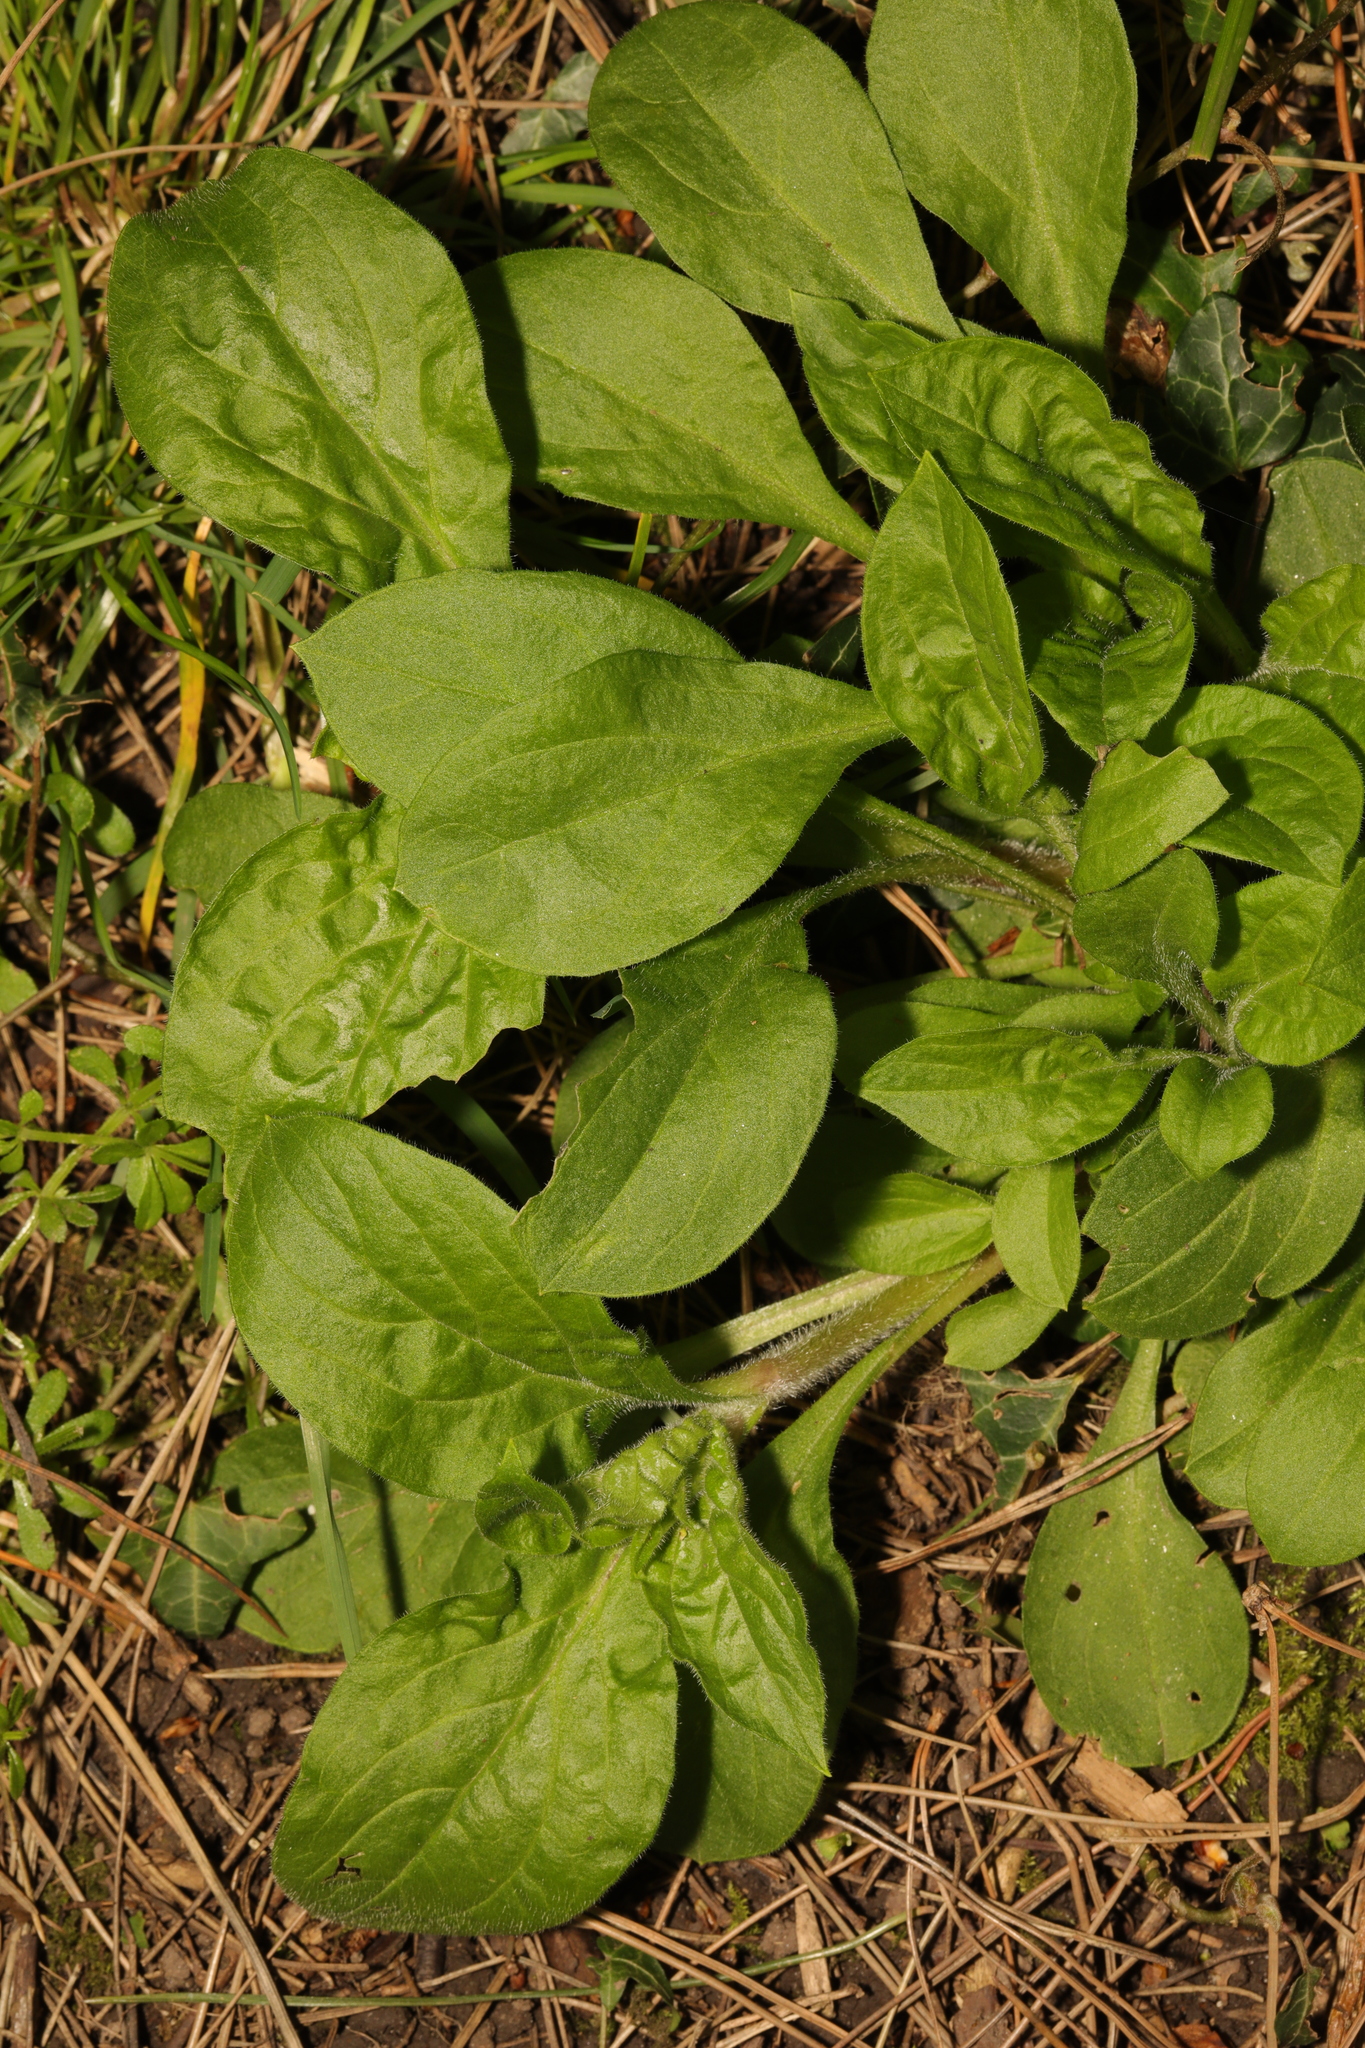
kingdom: Plantae
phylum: Tracheophyta
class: Magnoliopsida
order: Caryophyllales
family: Caryophyllaceae
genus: Silene
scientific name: Silene dioica
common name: Red campion
